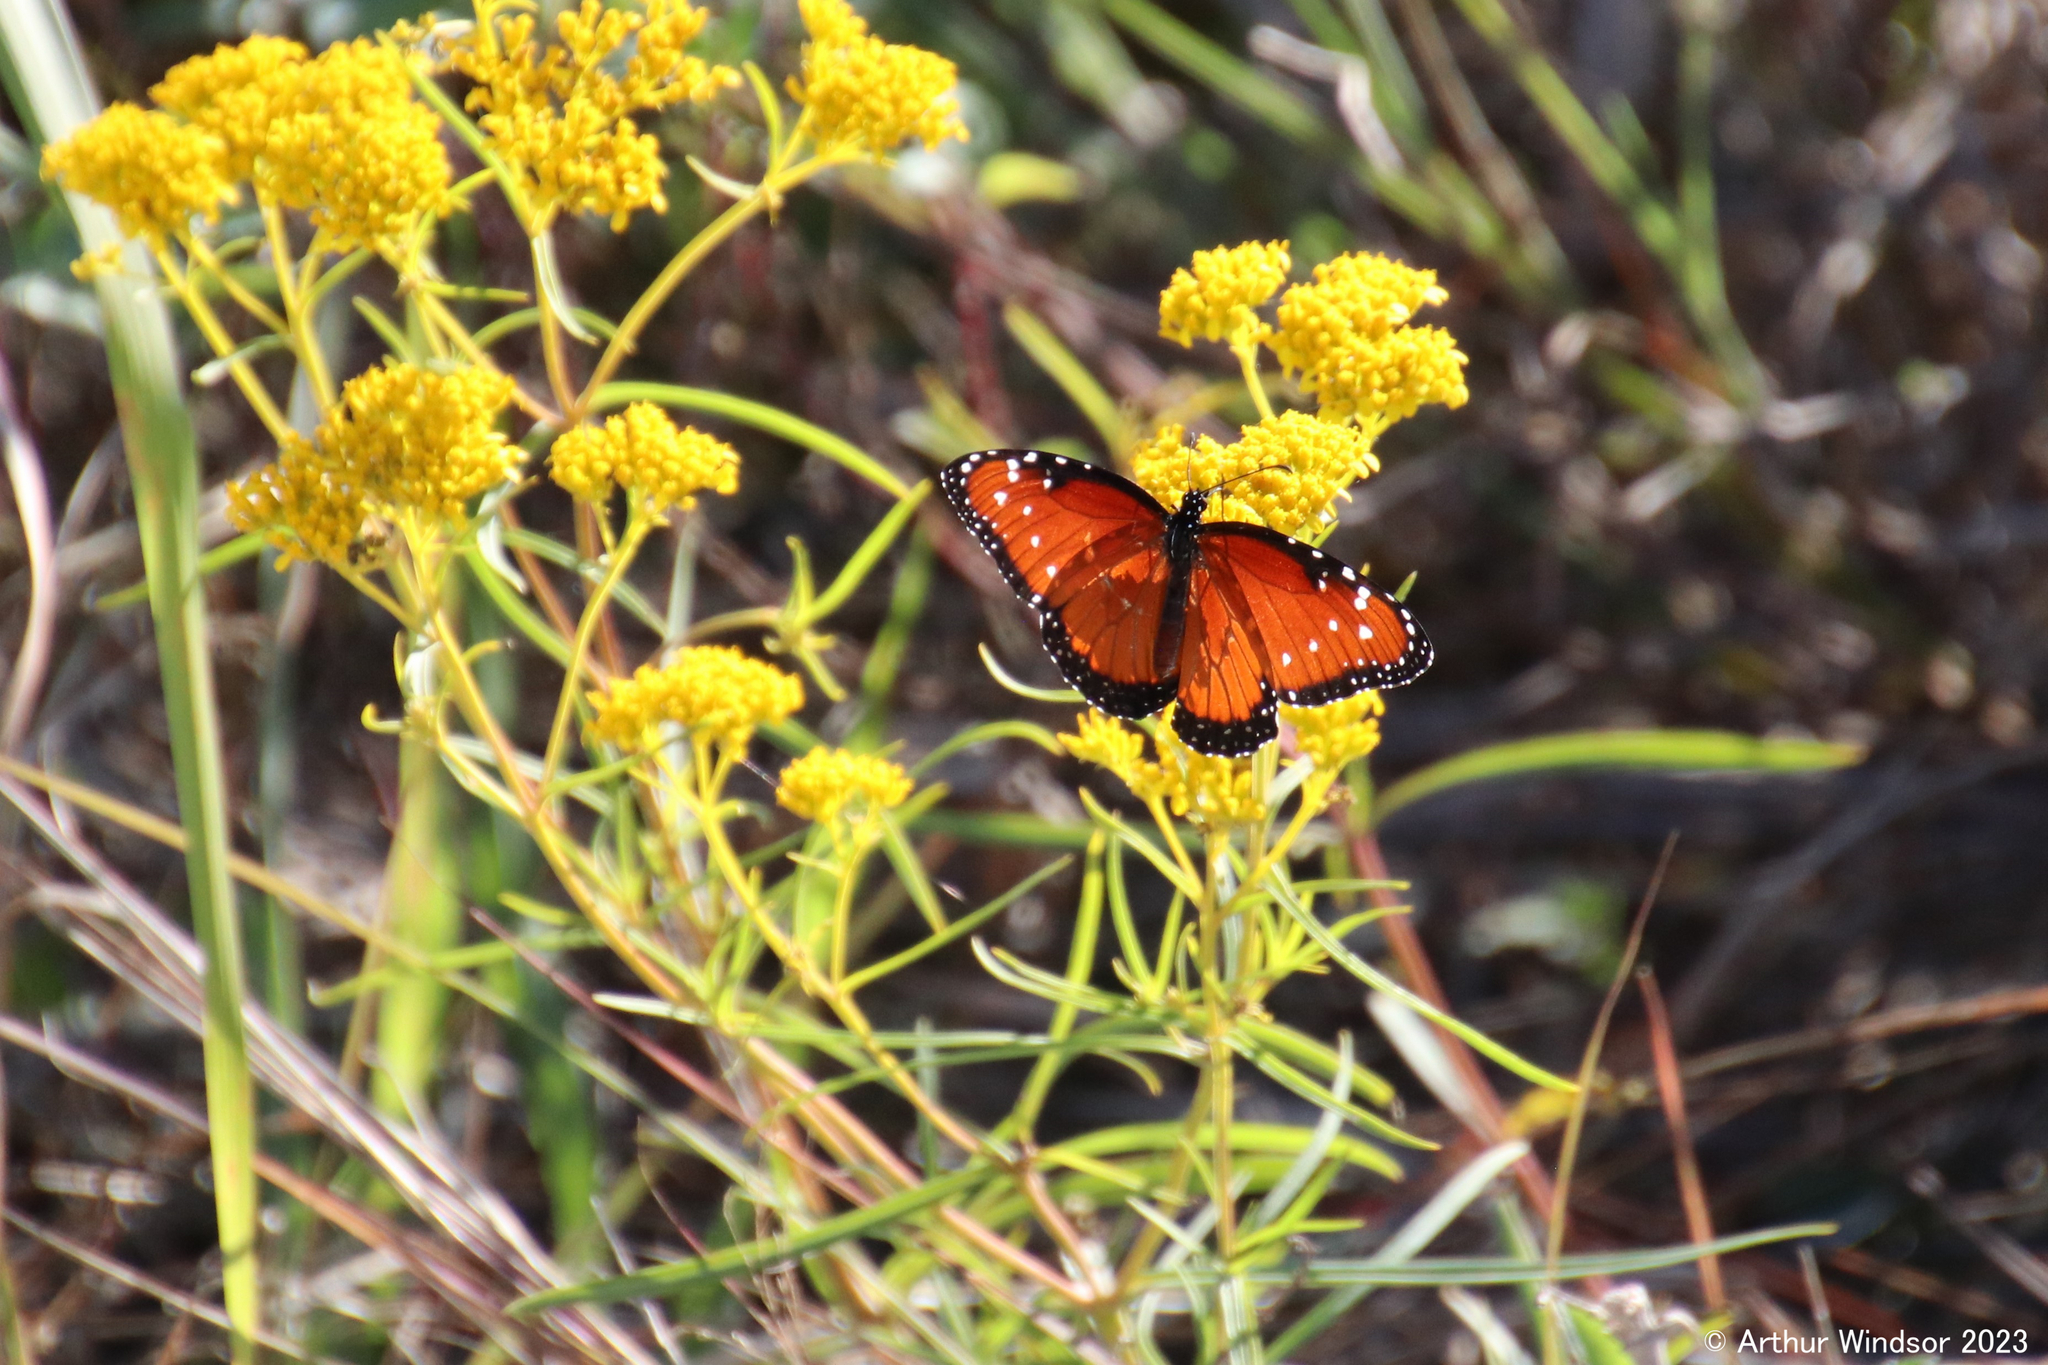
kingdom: Animalia
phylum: Arthropoda
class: Insecta
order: Lepidoptera
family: Nymphalidae
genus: Danaus
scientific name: Danaus gilippus
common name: Queen
